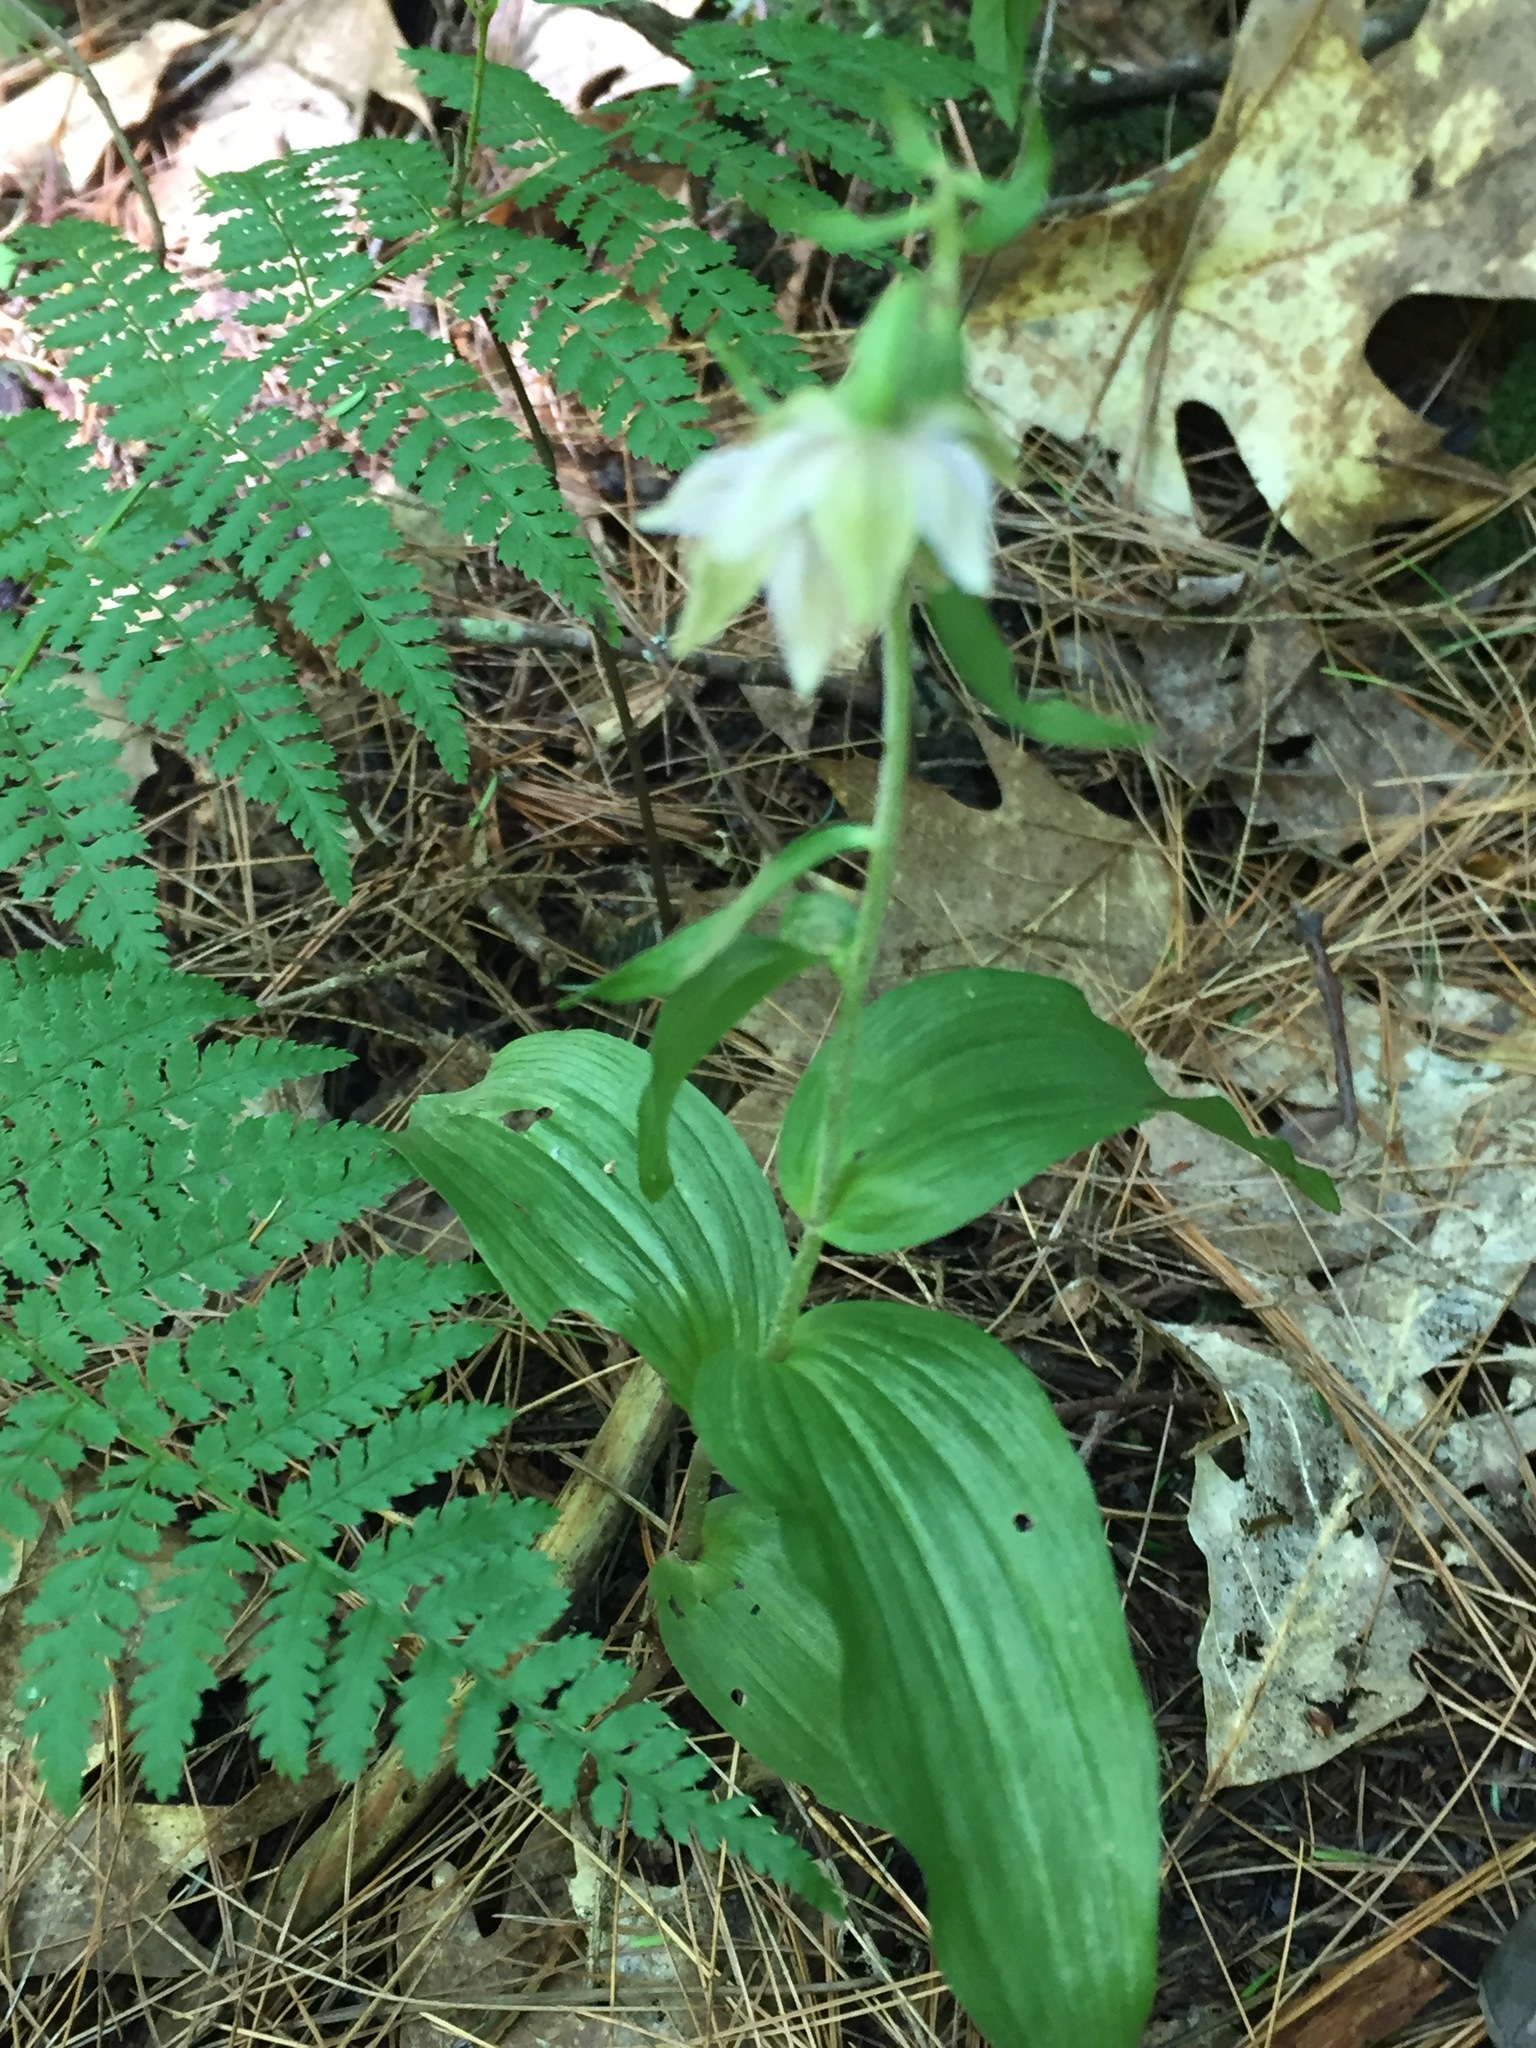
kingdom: Plantae
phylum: Tracheophyta
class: Liliopsida
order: Asparagales
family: Orchidaceae
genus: Epipactis
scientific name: Epipactis helleborine
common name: Broad-leaved helleborine
